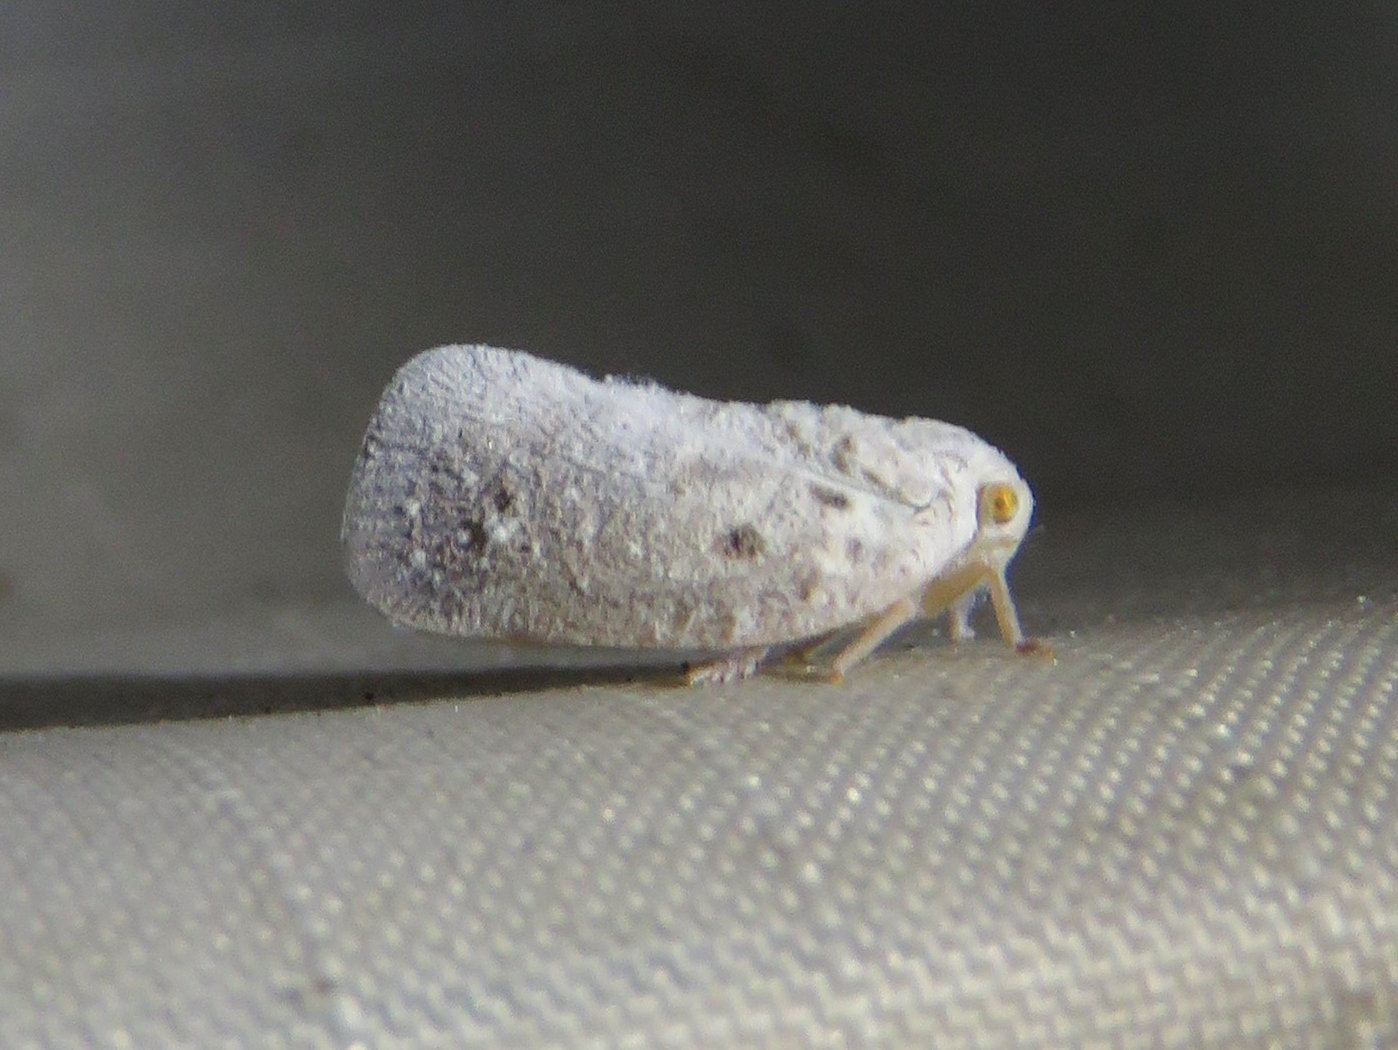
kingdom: Animalia
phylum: Arthropoda
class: Insecta
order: Hemiptera
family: Flatidae
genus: Metcalfa
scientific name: Metcalfa pruinosa
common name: Citrus flatid planthopper
